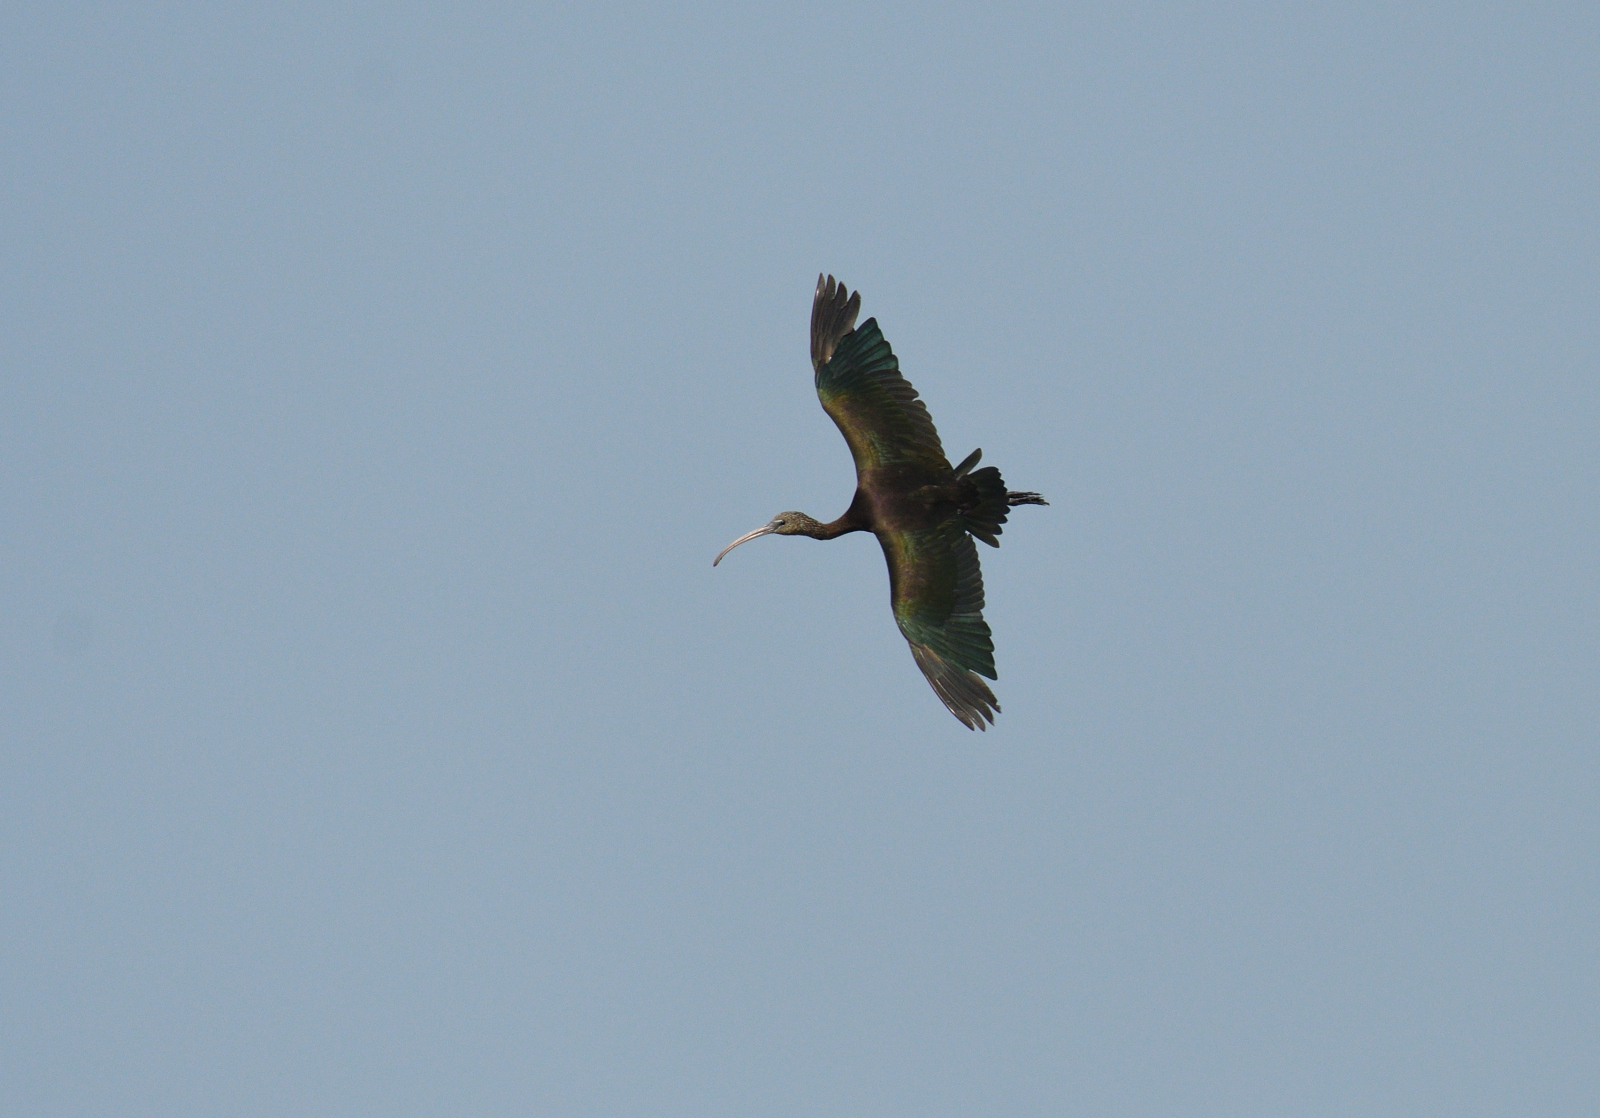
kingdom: Animalia
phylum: Chordata
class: Aves
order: Pelecaniformes
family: Threskiornithidae
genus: Plegadis
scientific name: Plegadis falcinellus
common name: Glossy ibis
